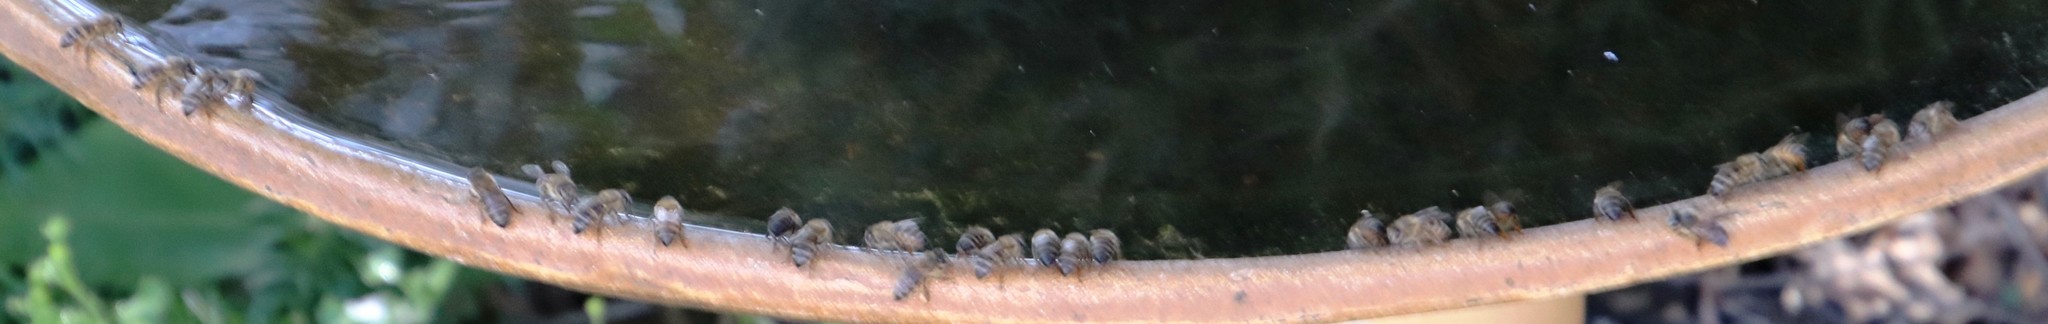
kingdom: Animalia
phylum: Arthropoda
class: Insecta
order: Hymenoptera
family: Apidae
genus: Apis
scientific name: Apis mellifera
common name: Honey bee
